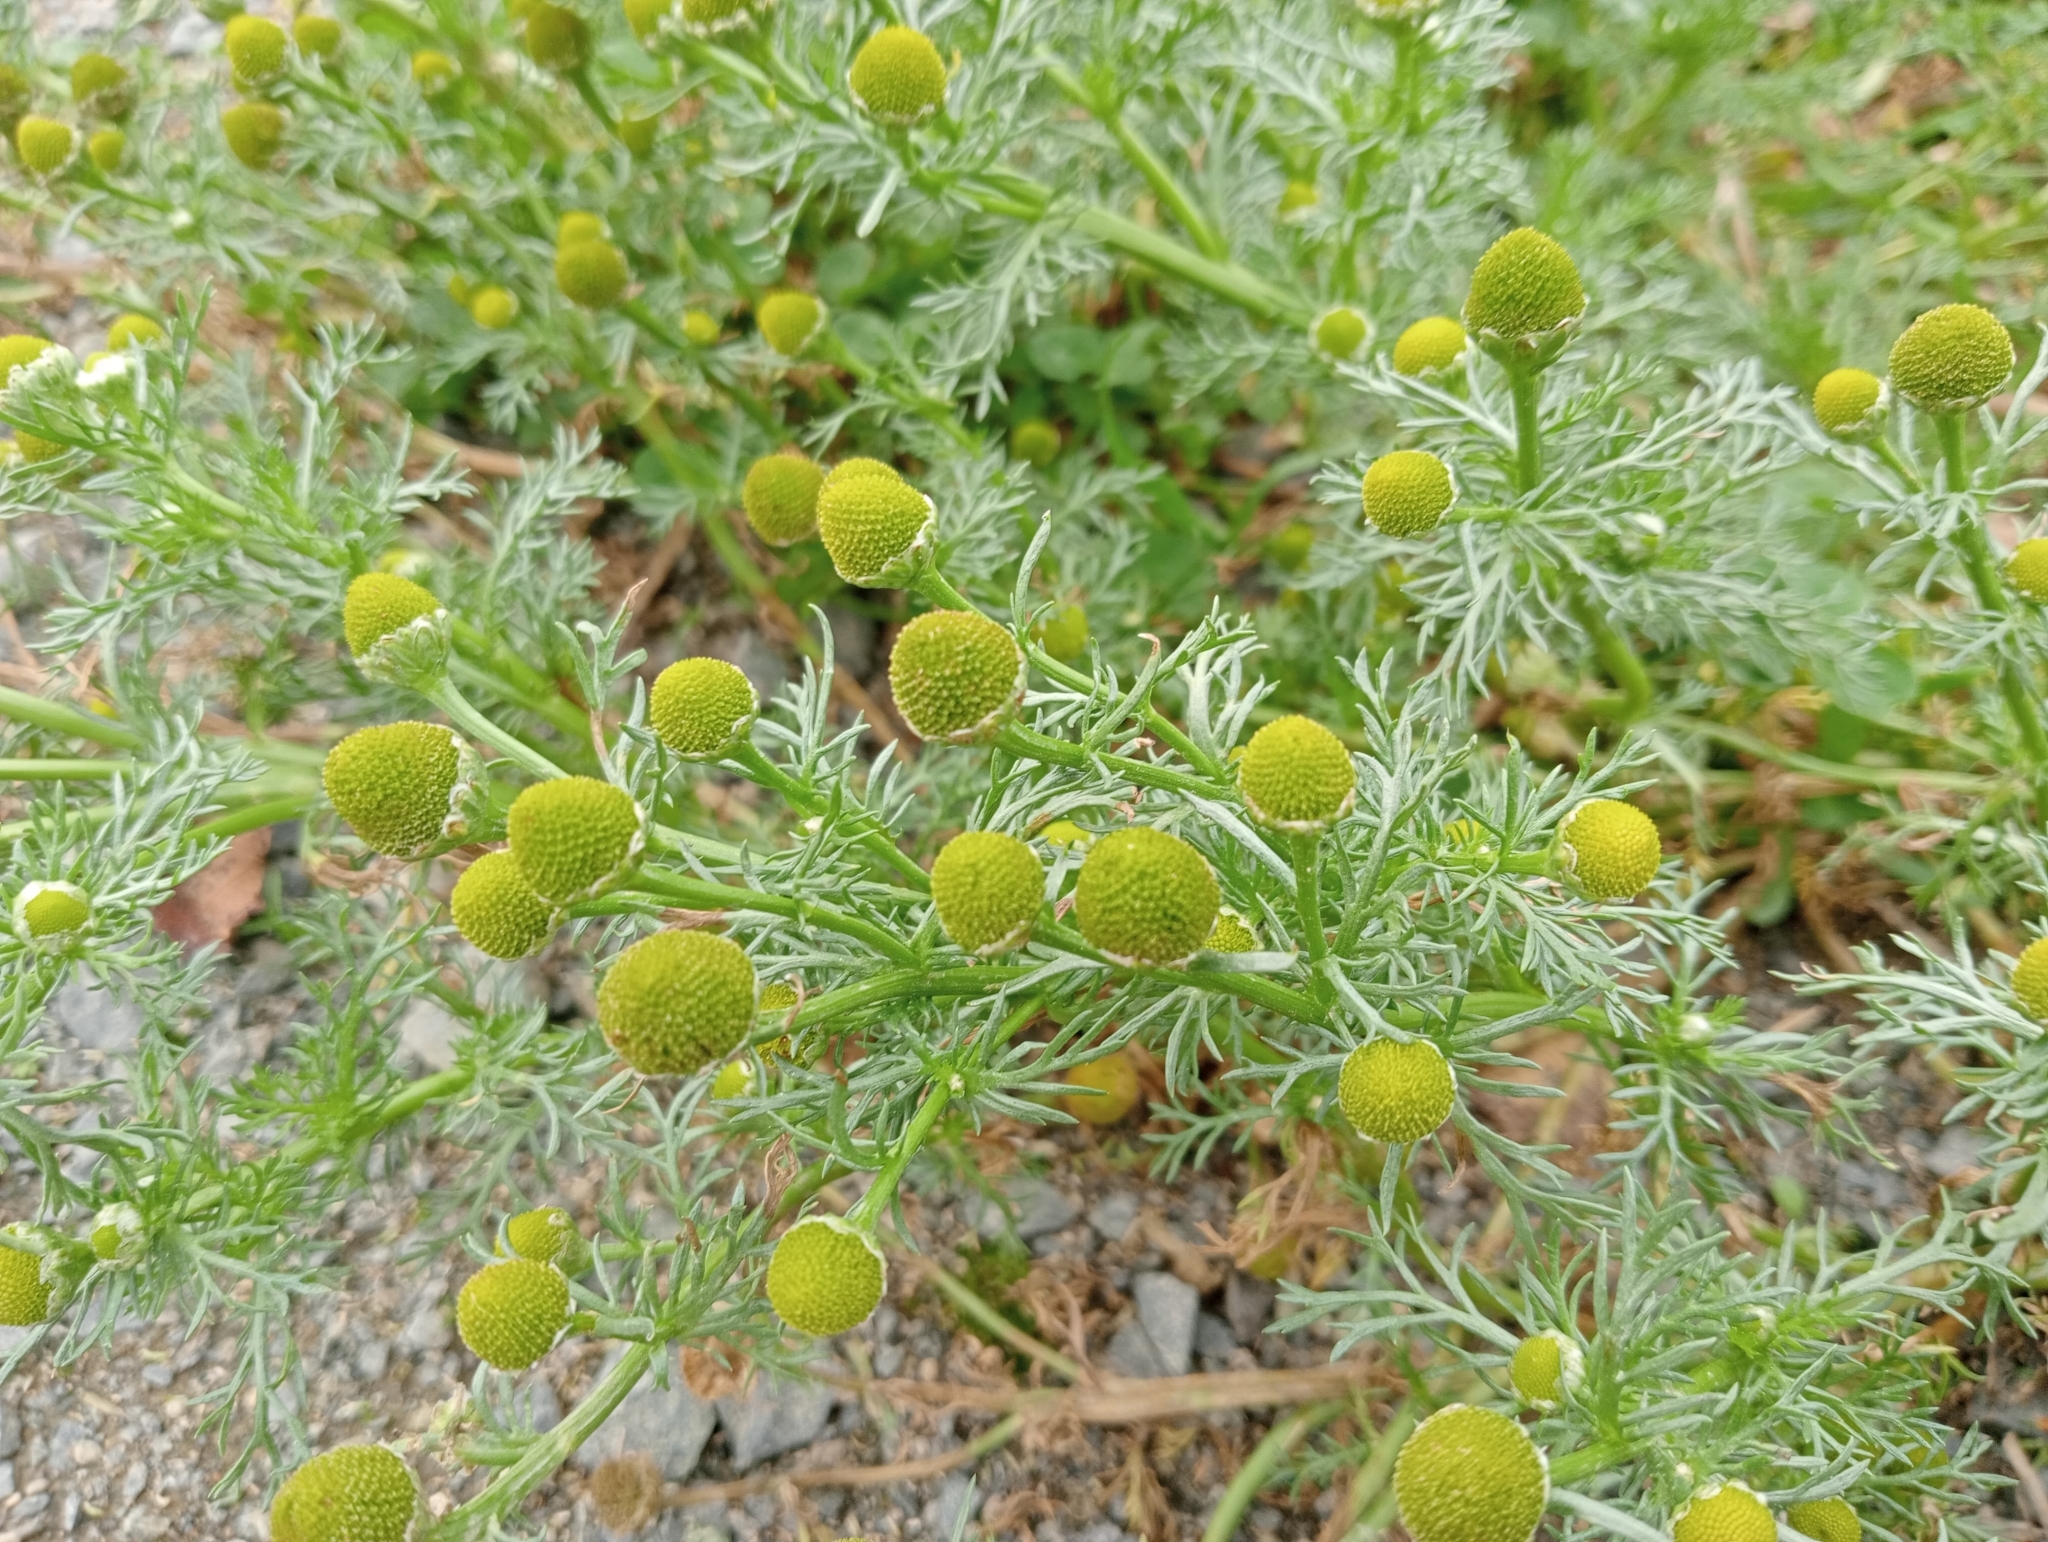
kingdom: Plantae
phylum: Tracheophyta
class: Magnoliopsida
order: Asterales
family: Asteraceae
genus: Matricaria
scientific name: Matricaria discoidea
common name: Disc mayweed
